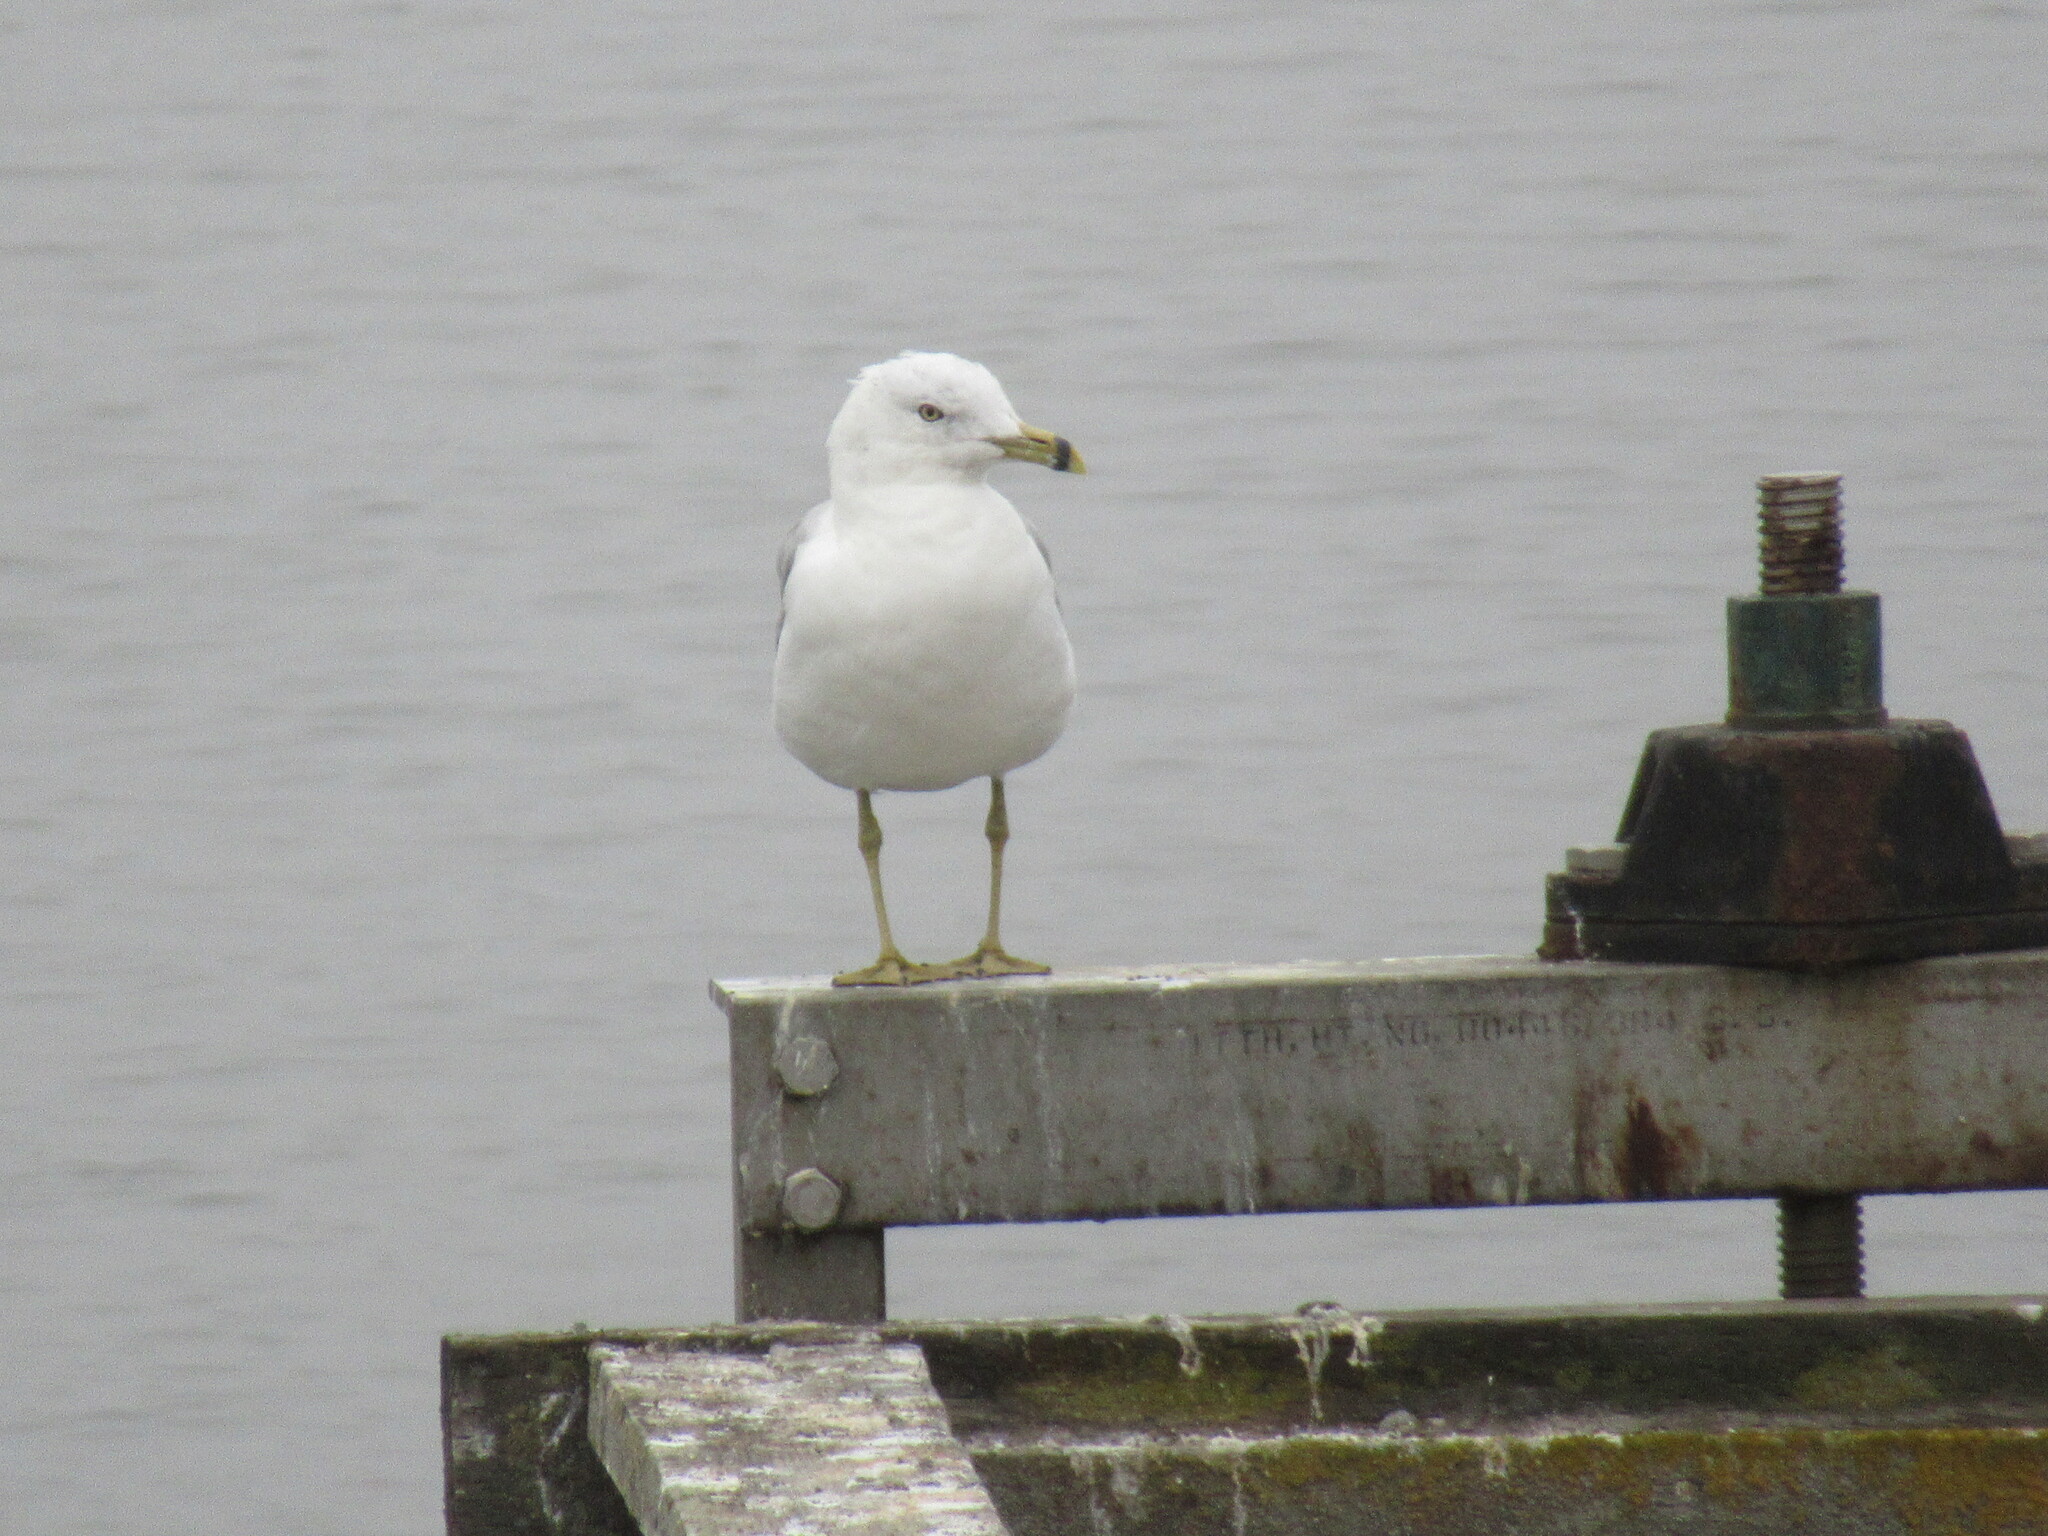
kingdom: Animalia
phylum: Chordata
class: Aves
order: Charadriiformes
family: Laridae
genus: Larus
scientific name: Larus delawarensis
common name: Ring-billed gull
